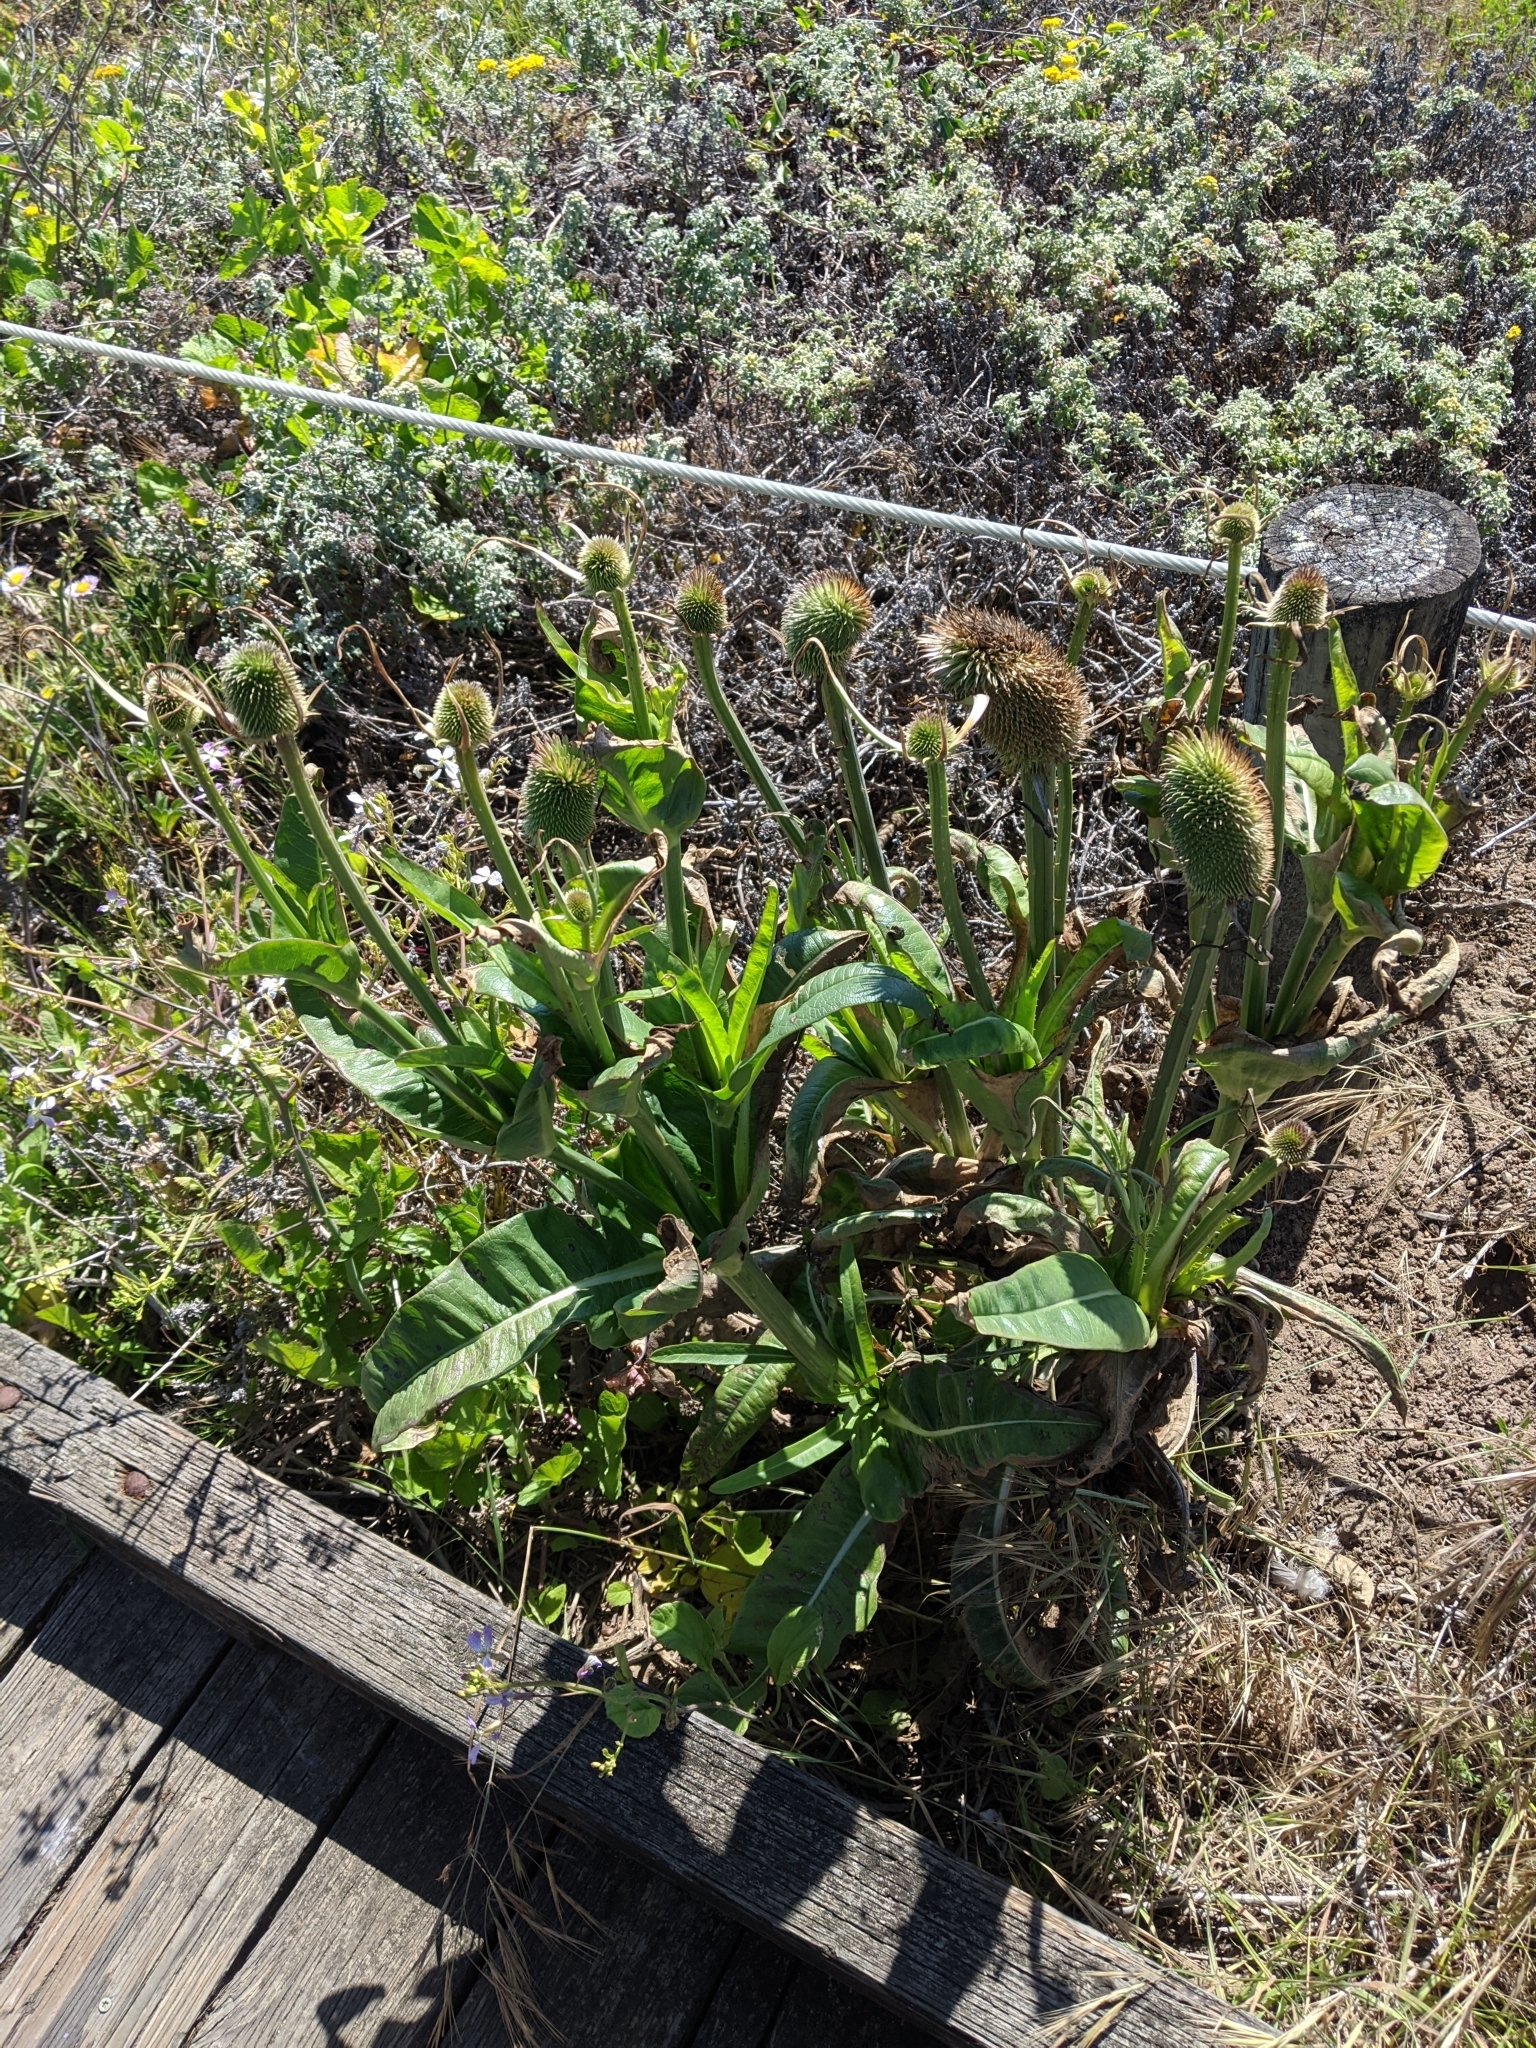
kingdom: Plantae
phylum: Tracheophyta
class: Magnoliopsida
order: Dipsacales
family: Caprifoliaceae
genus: Dipsacus
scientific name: Dipsacus sativus
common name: Fuller's teasel
